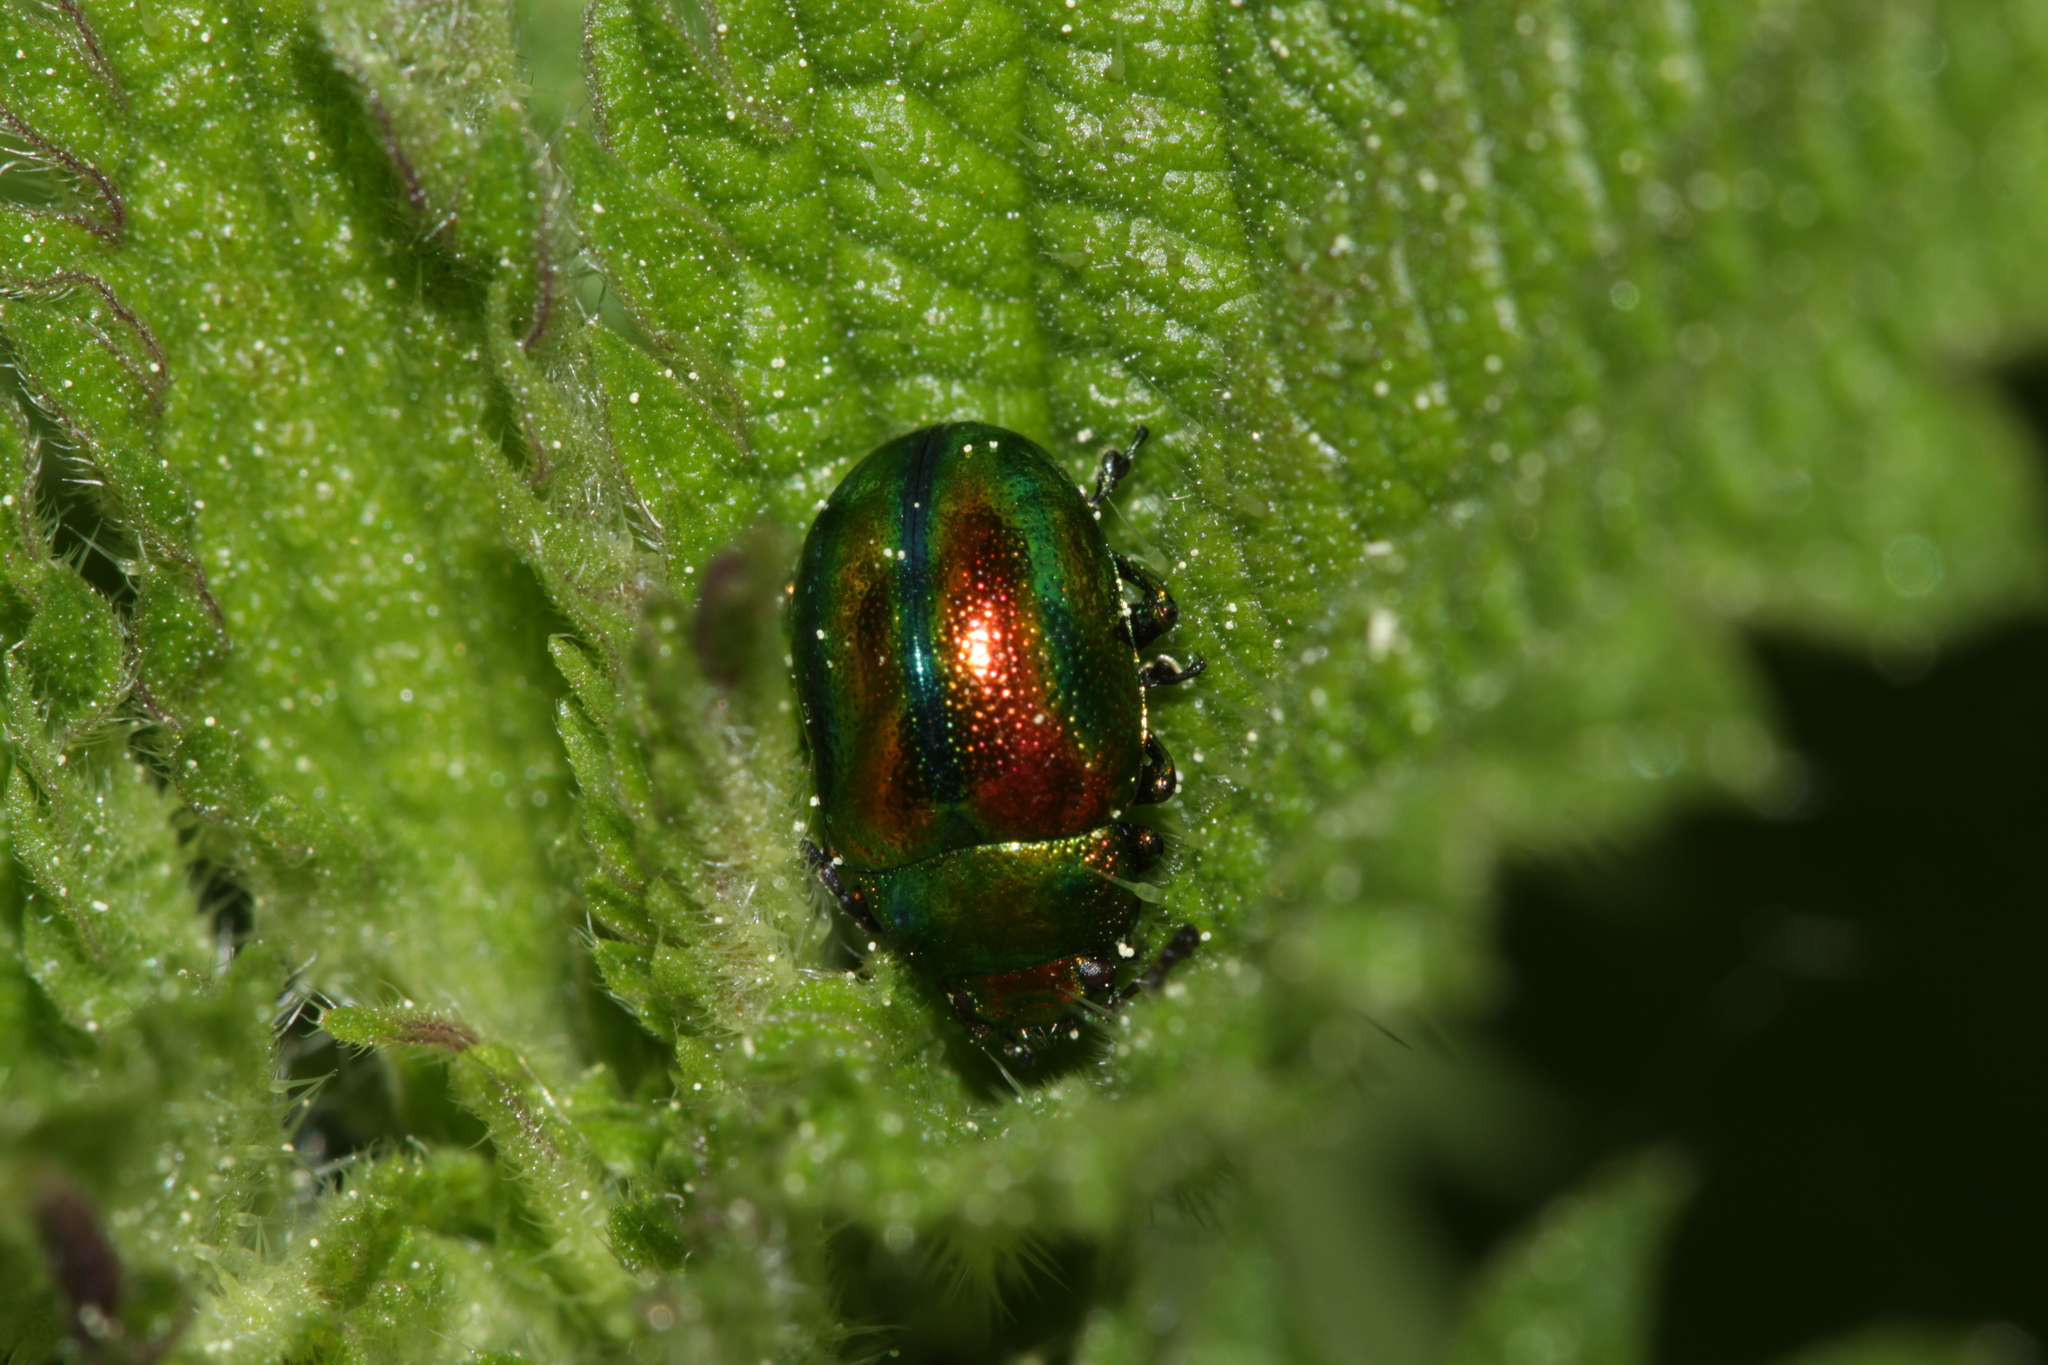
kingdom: Animalia
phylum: Arthropoda
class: Insecta
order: Coleoptera
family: Chrysomelidae
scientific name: Chrysomelidae
